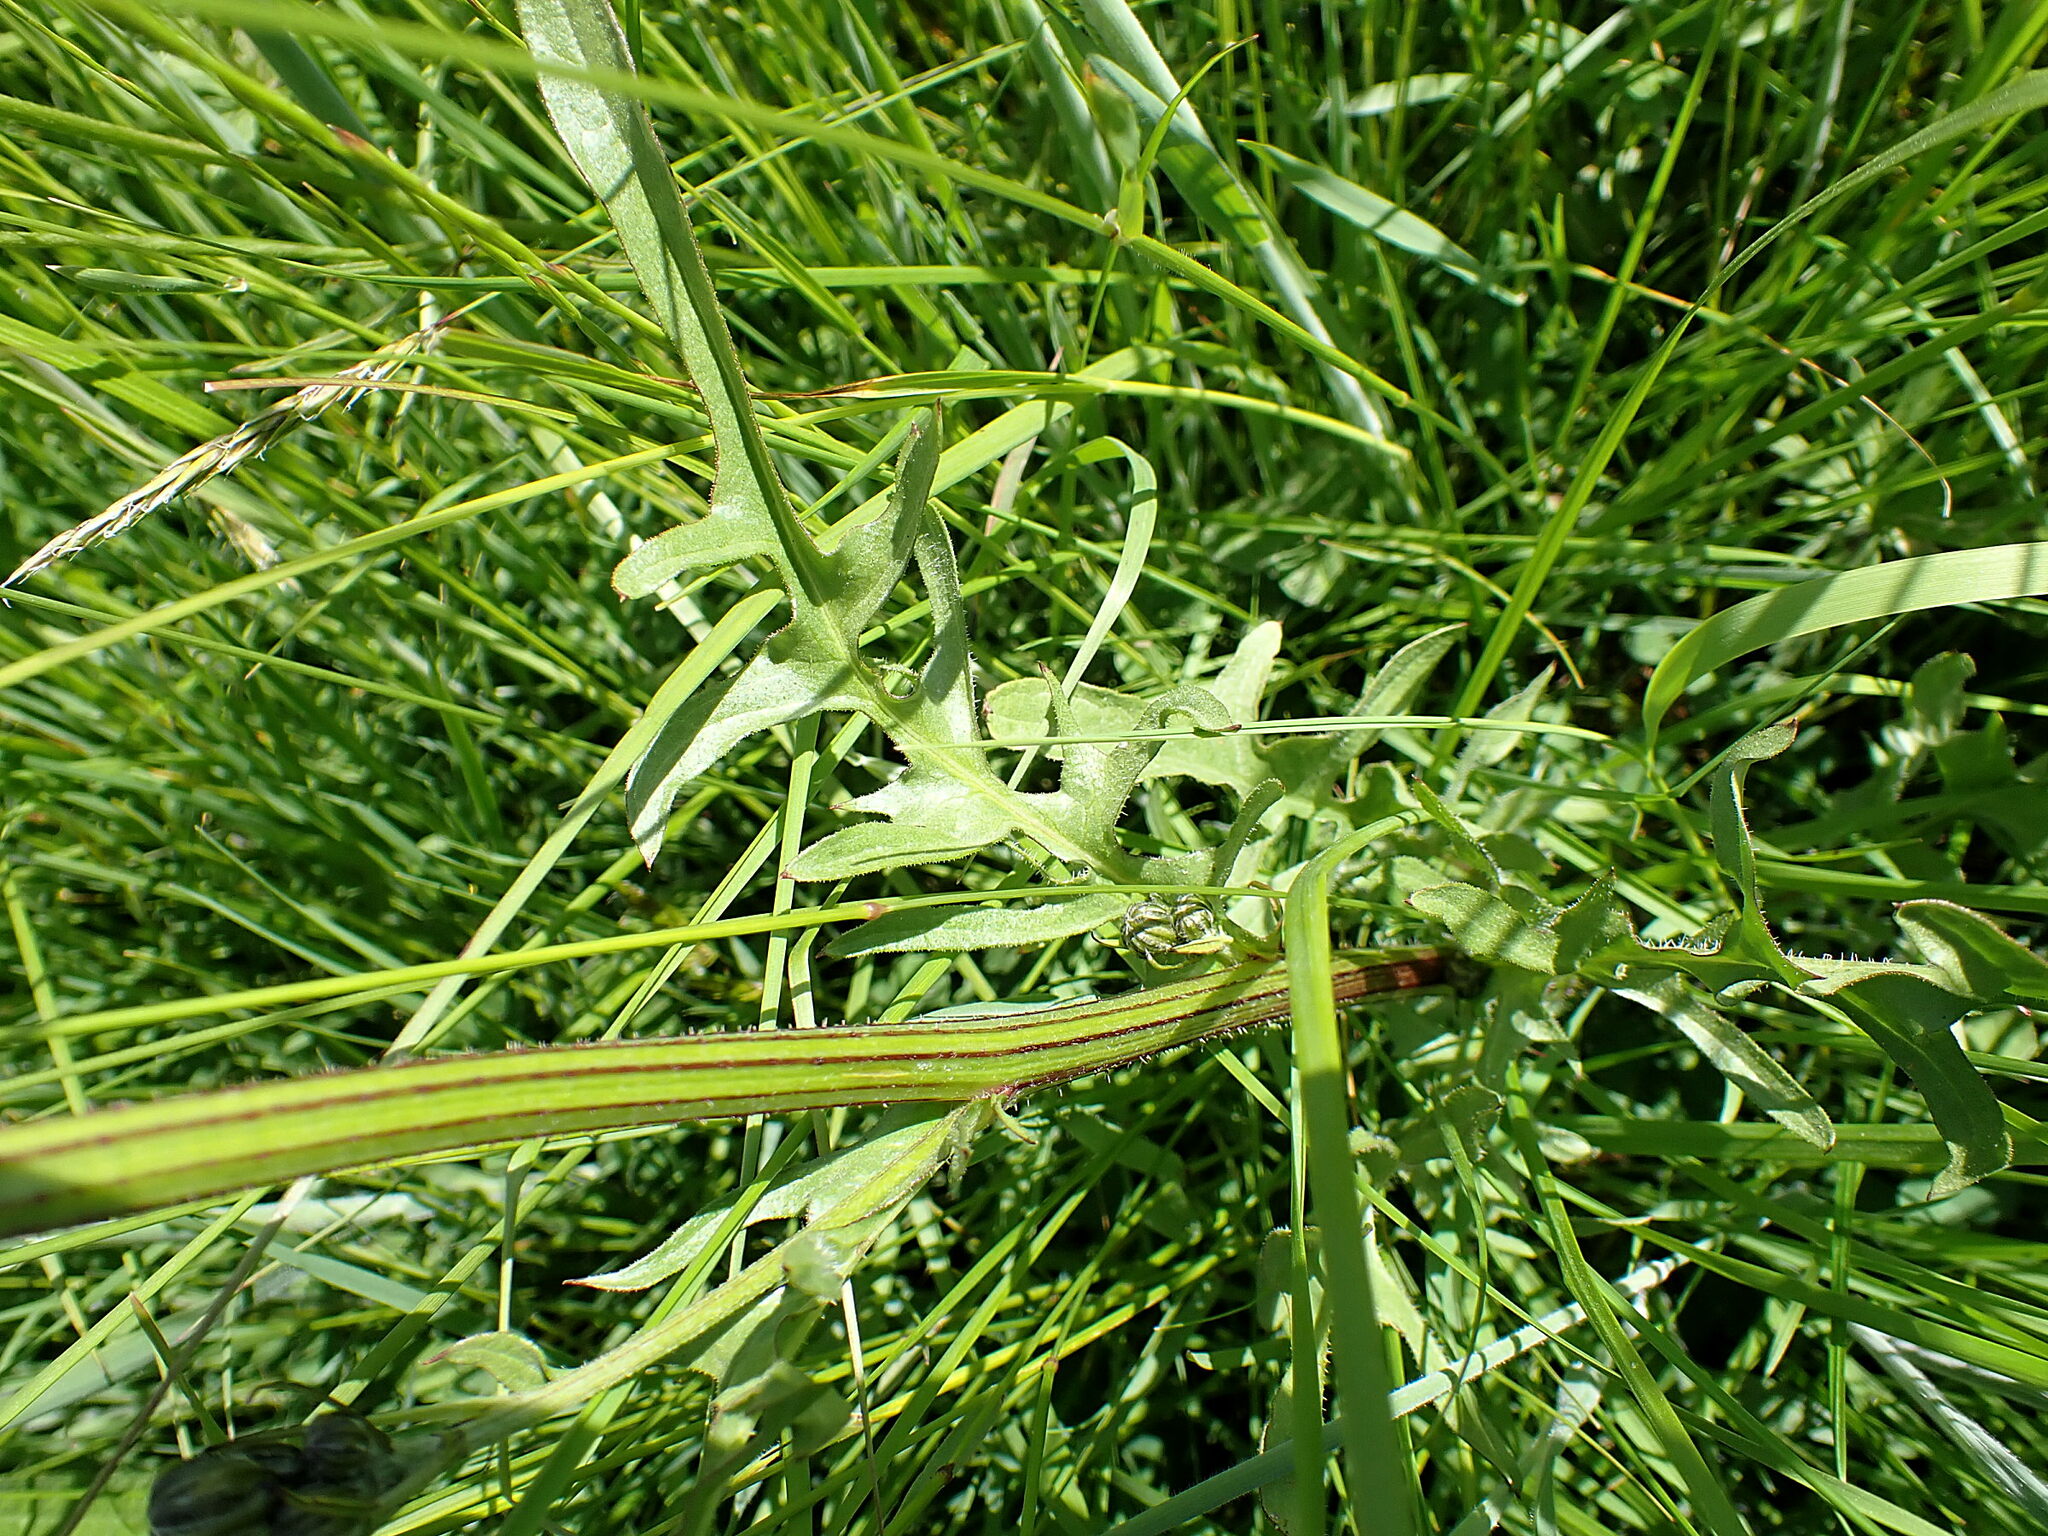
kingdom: Plantae
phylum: Tracheophyta
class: Magnoliopsida
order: Asterales
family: Asteraceae
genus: Crepis
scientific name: Crepis biennis
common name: Rough hawk's-beard
